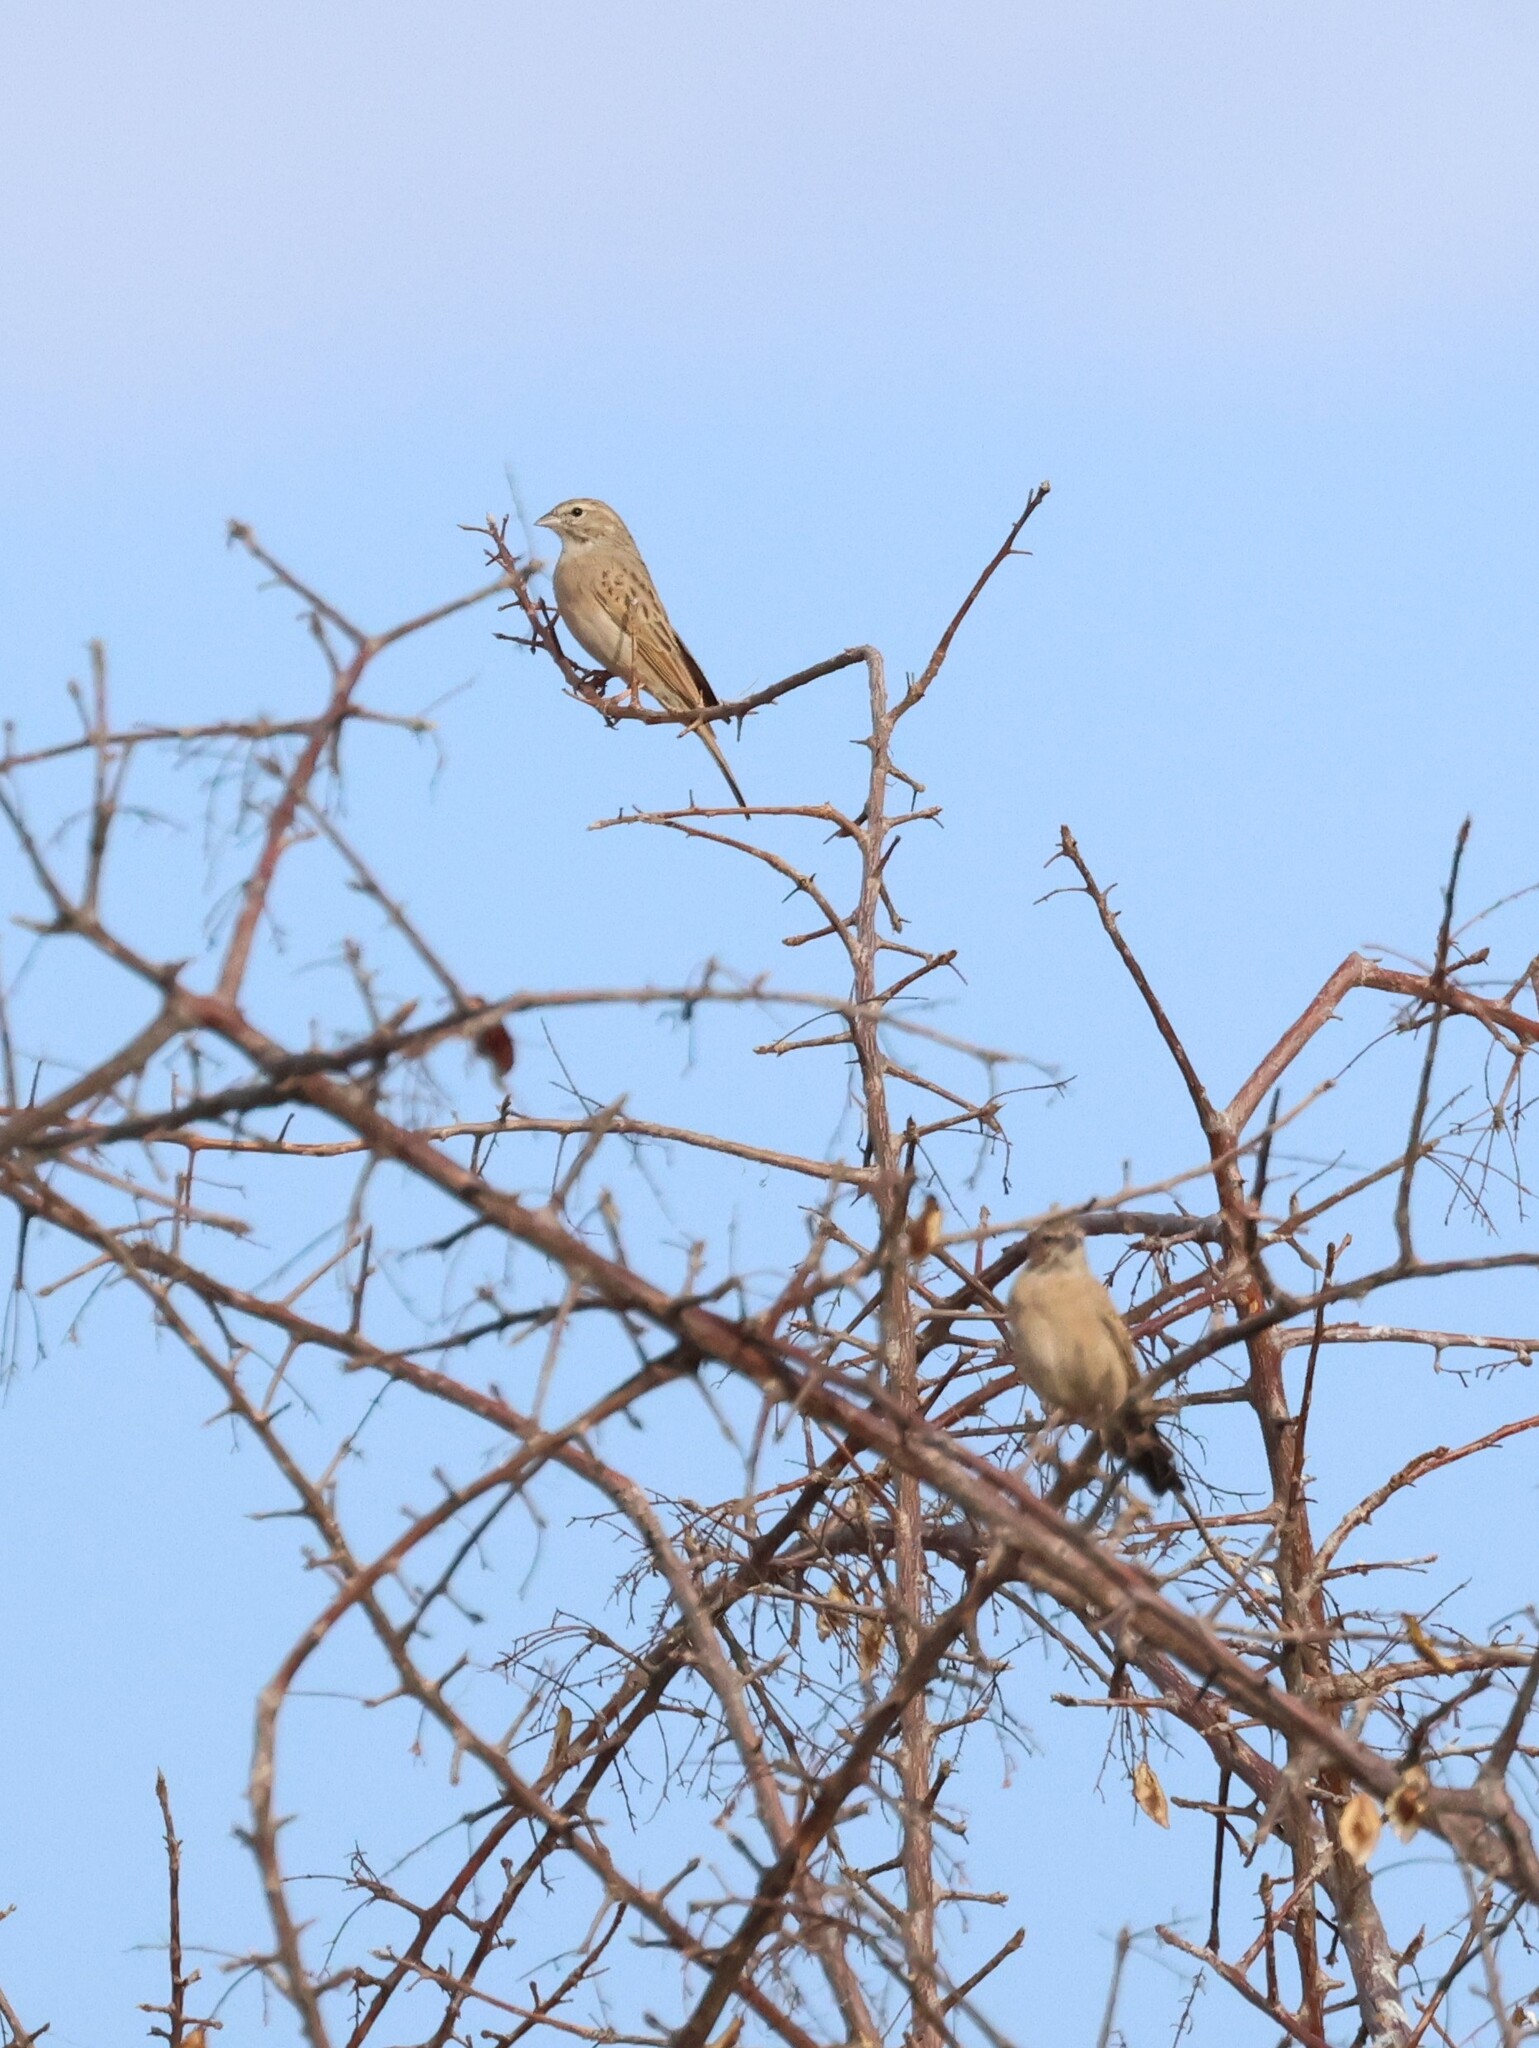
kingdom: Animalia
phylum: Chordata
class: Aves
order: Passeriformes
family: Emberizidae
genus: Emberiza
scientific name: Emberiza impetuani
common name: Lark-like bunting
